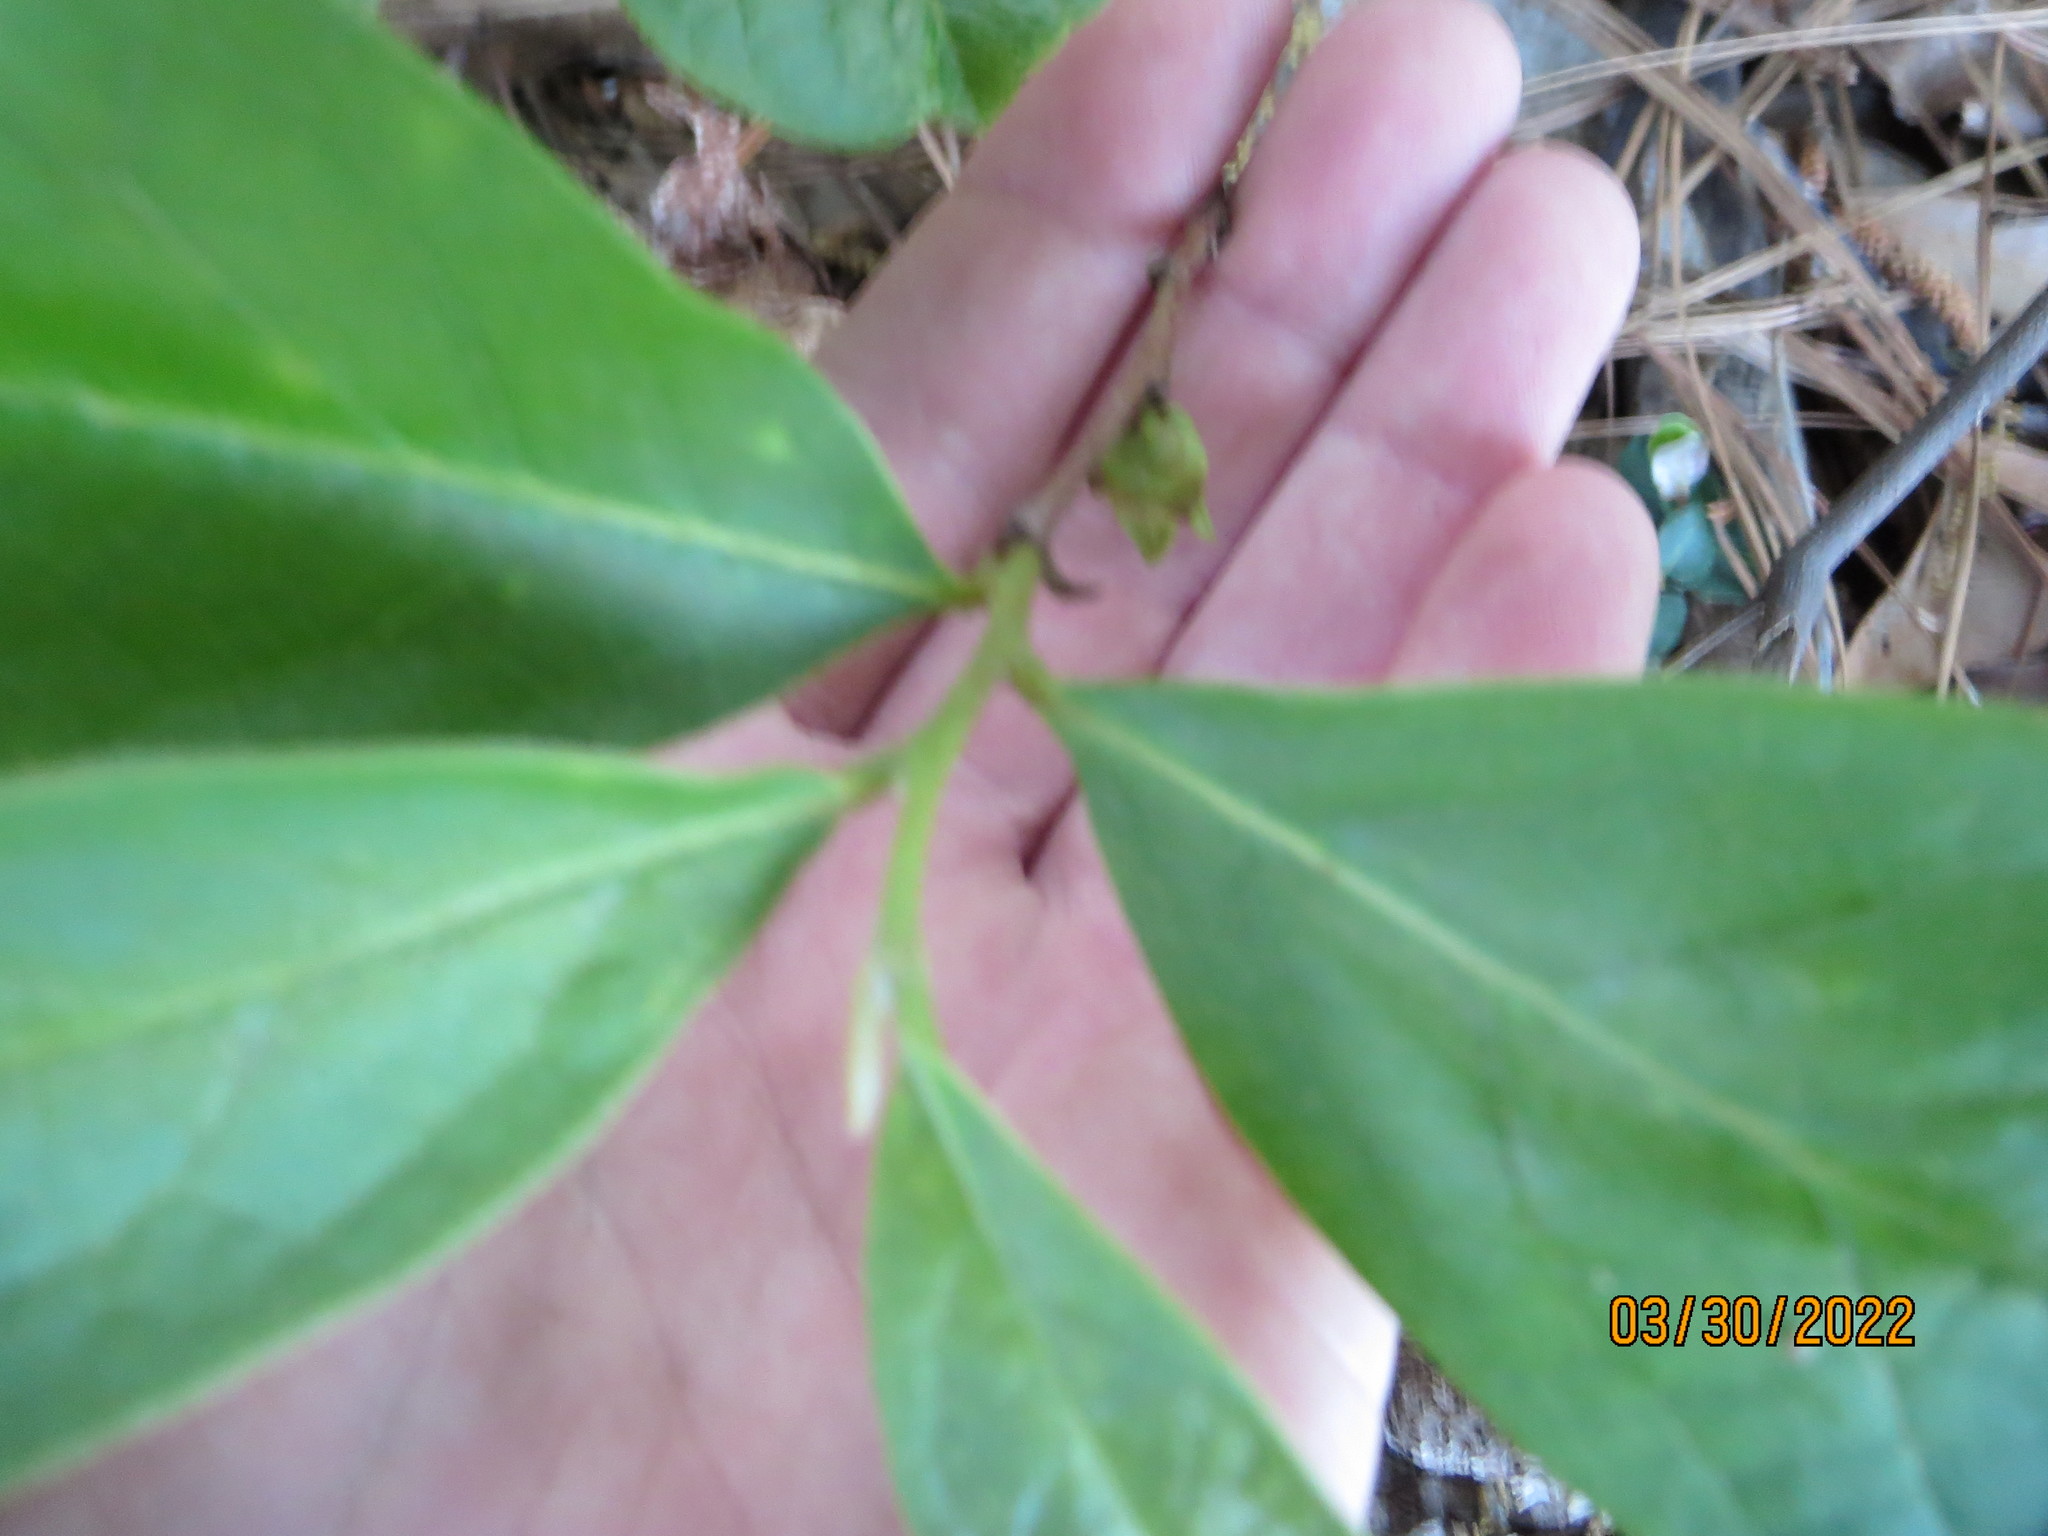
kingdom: Plantae
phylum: Tracheophyta
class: Magnoliopsida
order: Magnoliales
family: Annonaceae
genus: Asimina
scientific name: Asimina parviflora
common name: Dwarf pawpaw
